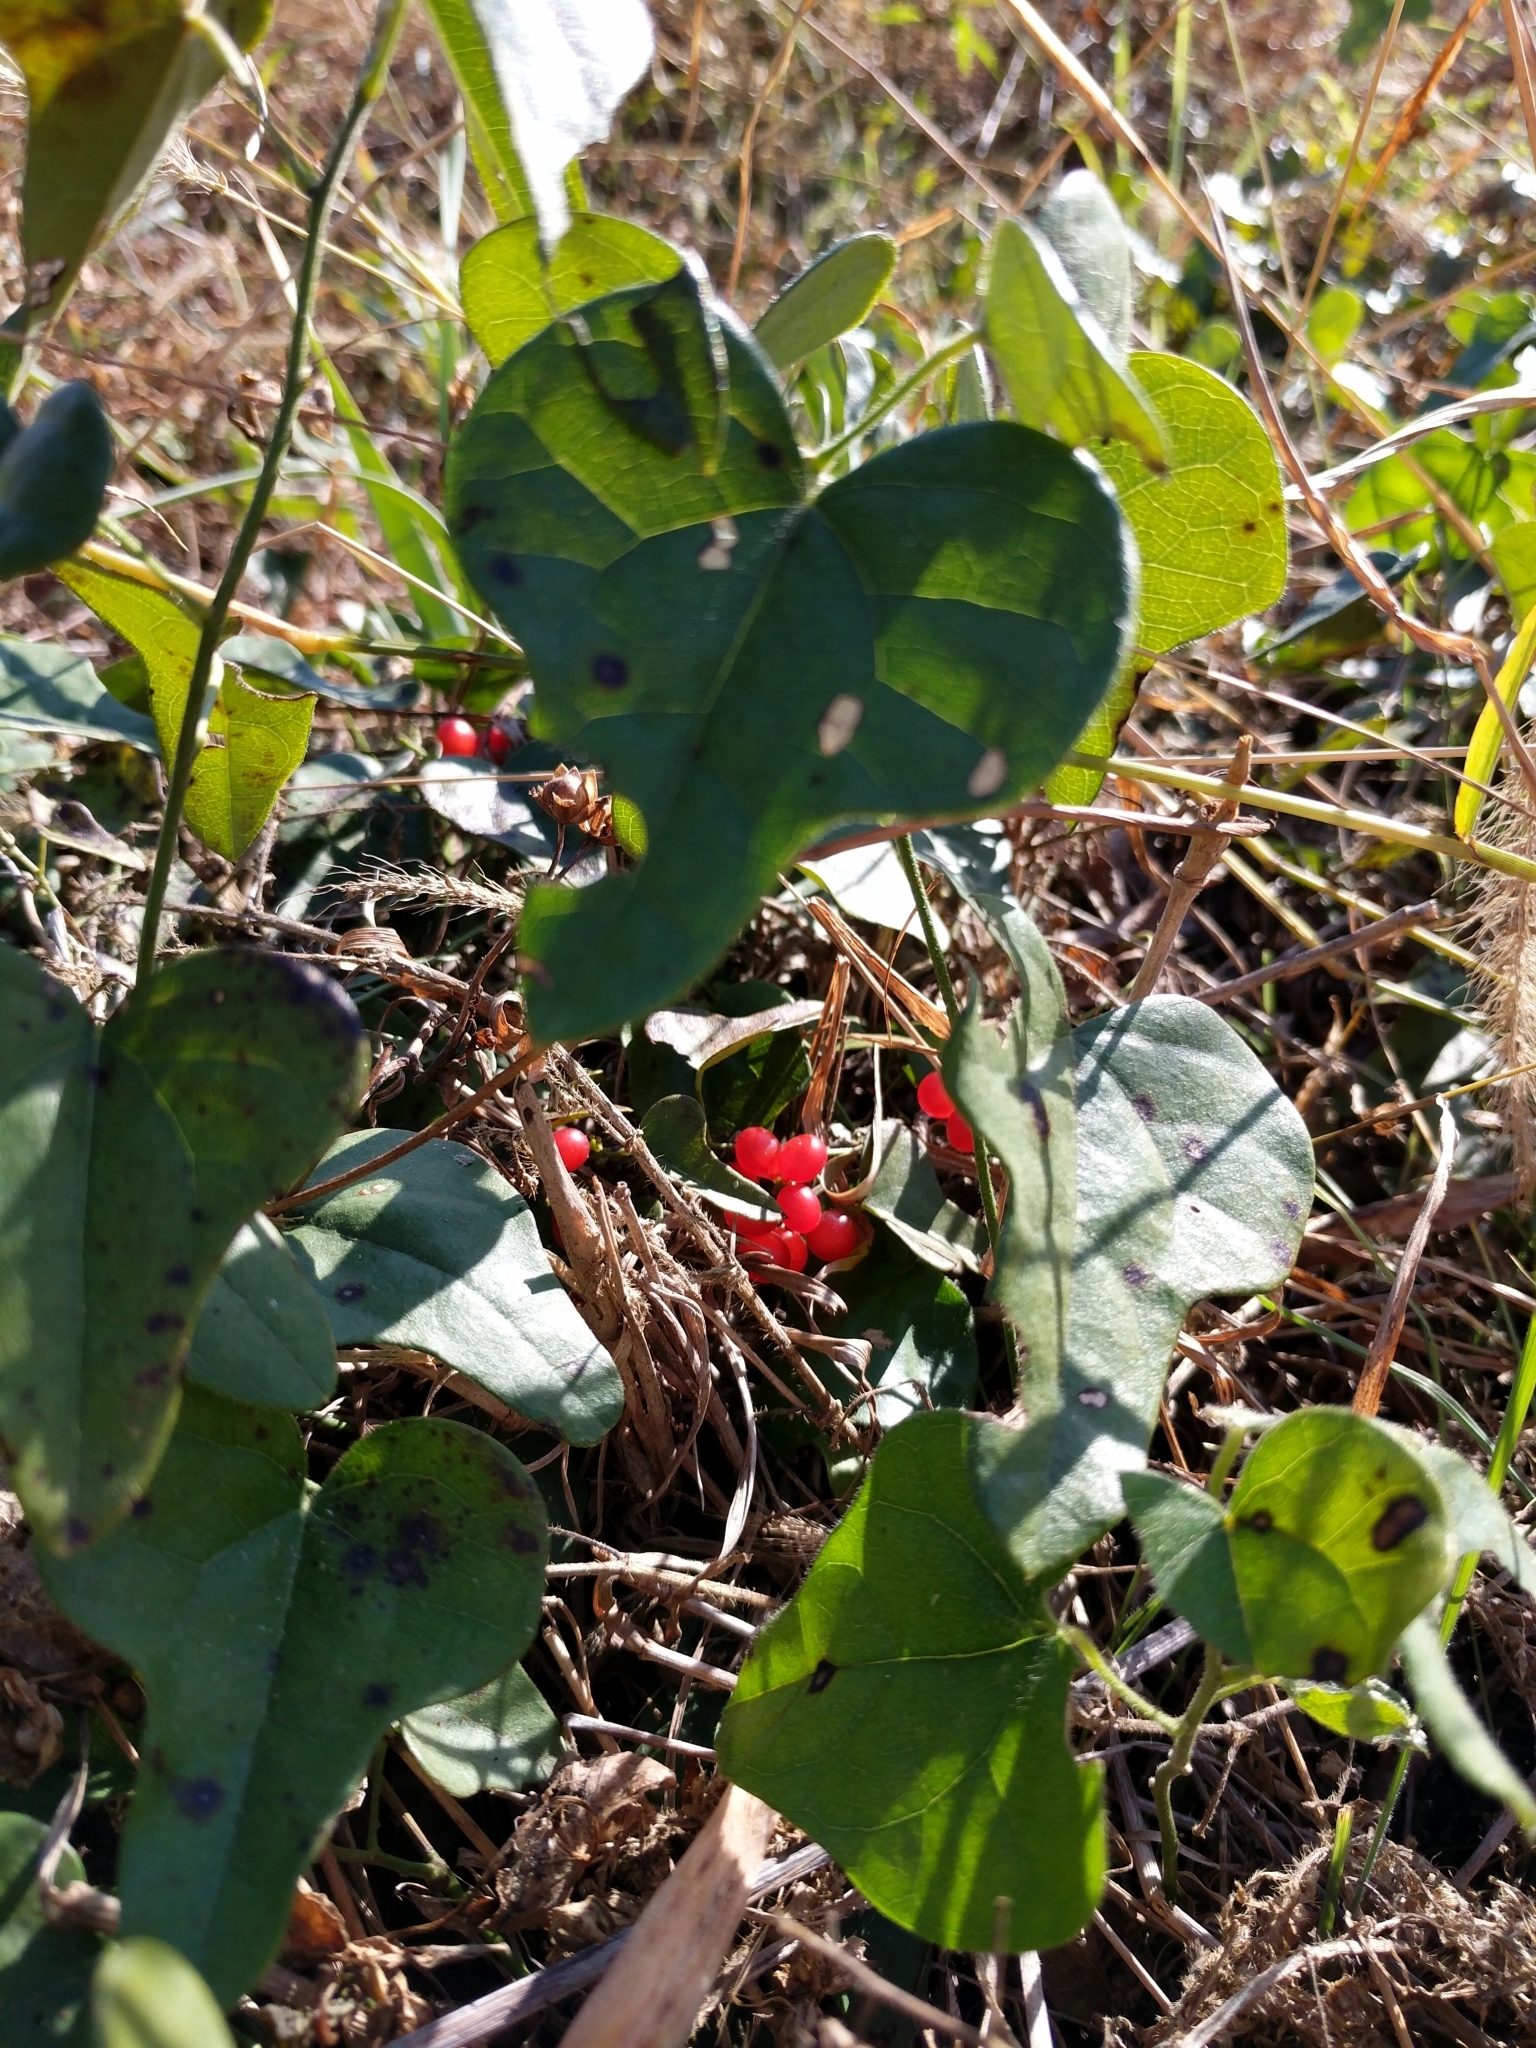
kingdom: Plantae
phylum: Tracheophyta
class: Magnoliopsida
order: Ranunculales
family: Menispermaceae
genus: Cocculus
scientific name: Cocculus carolinus
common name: Carolina moonseed
